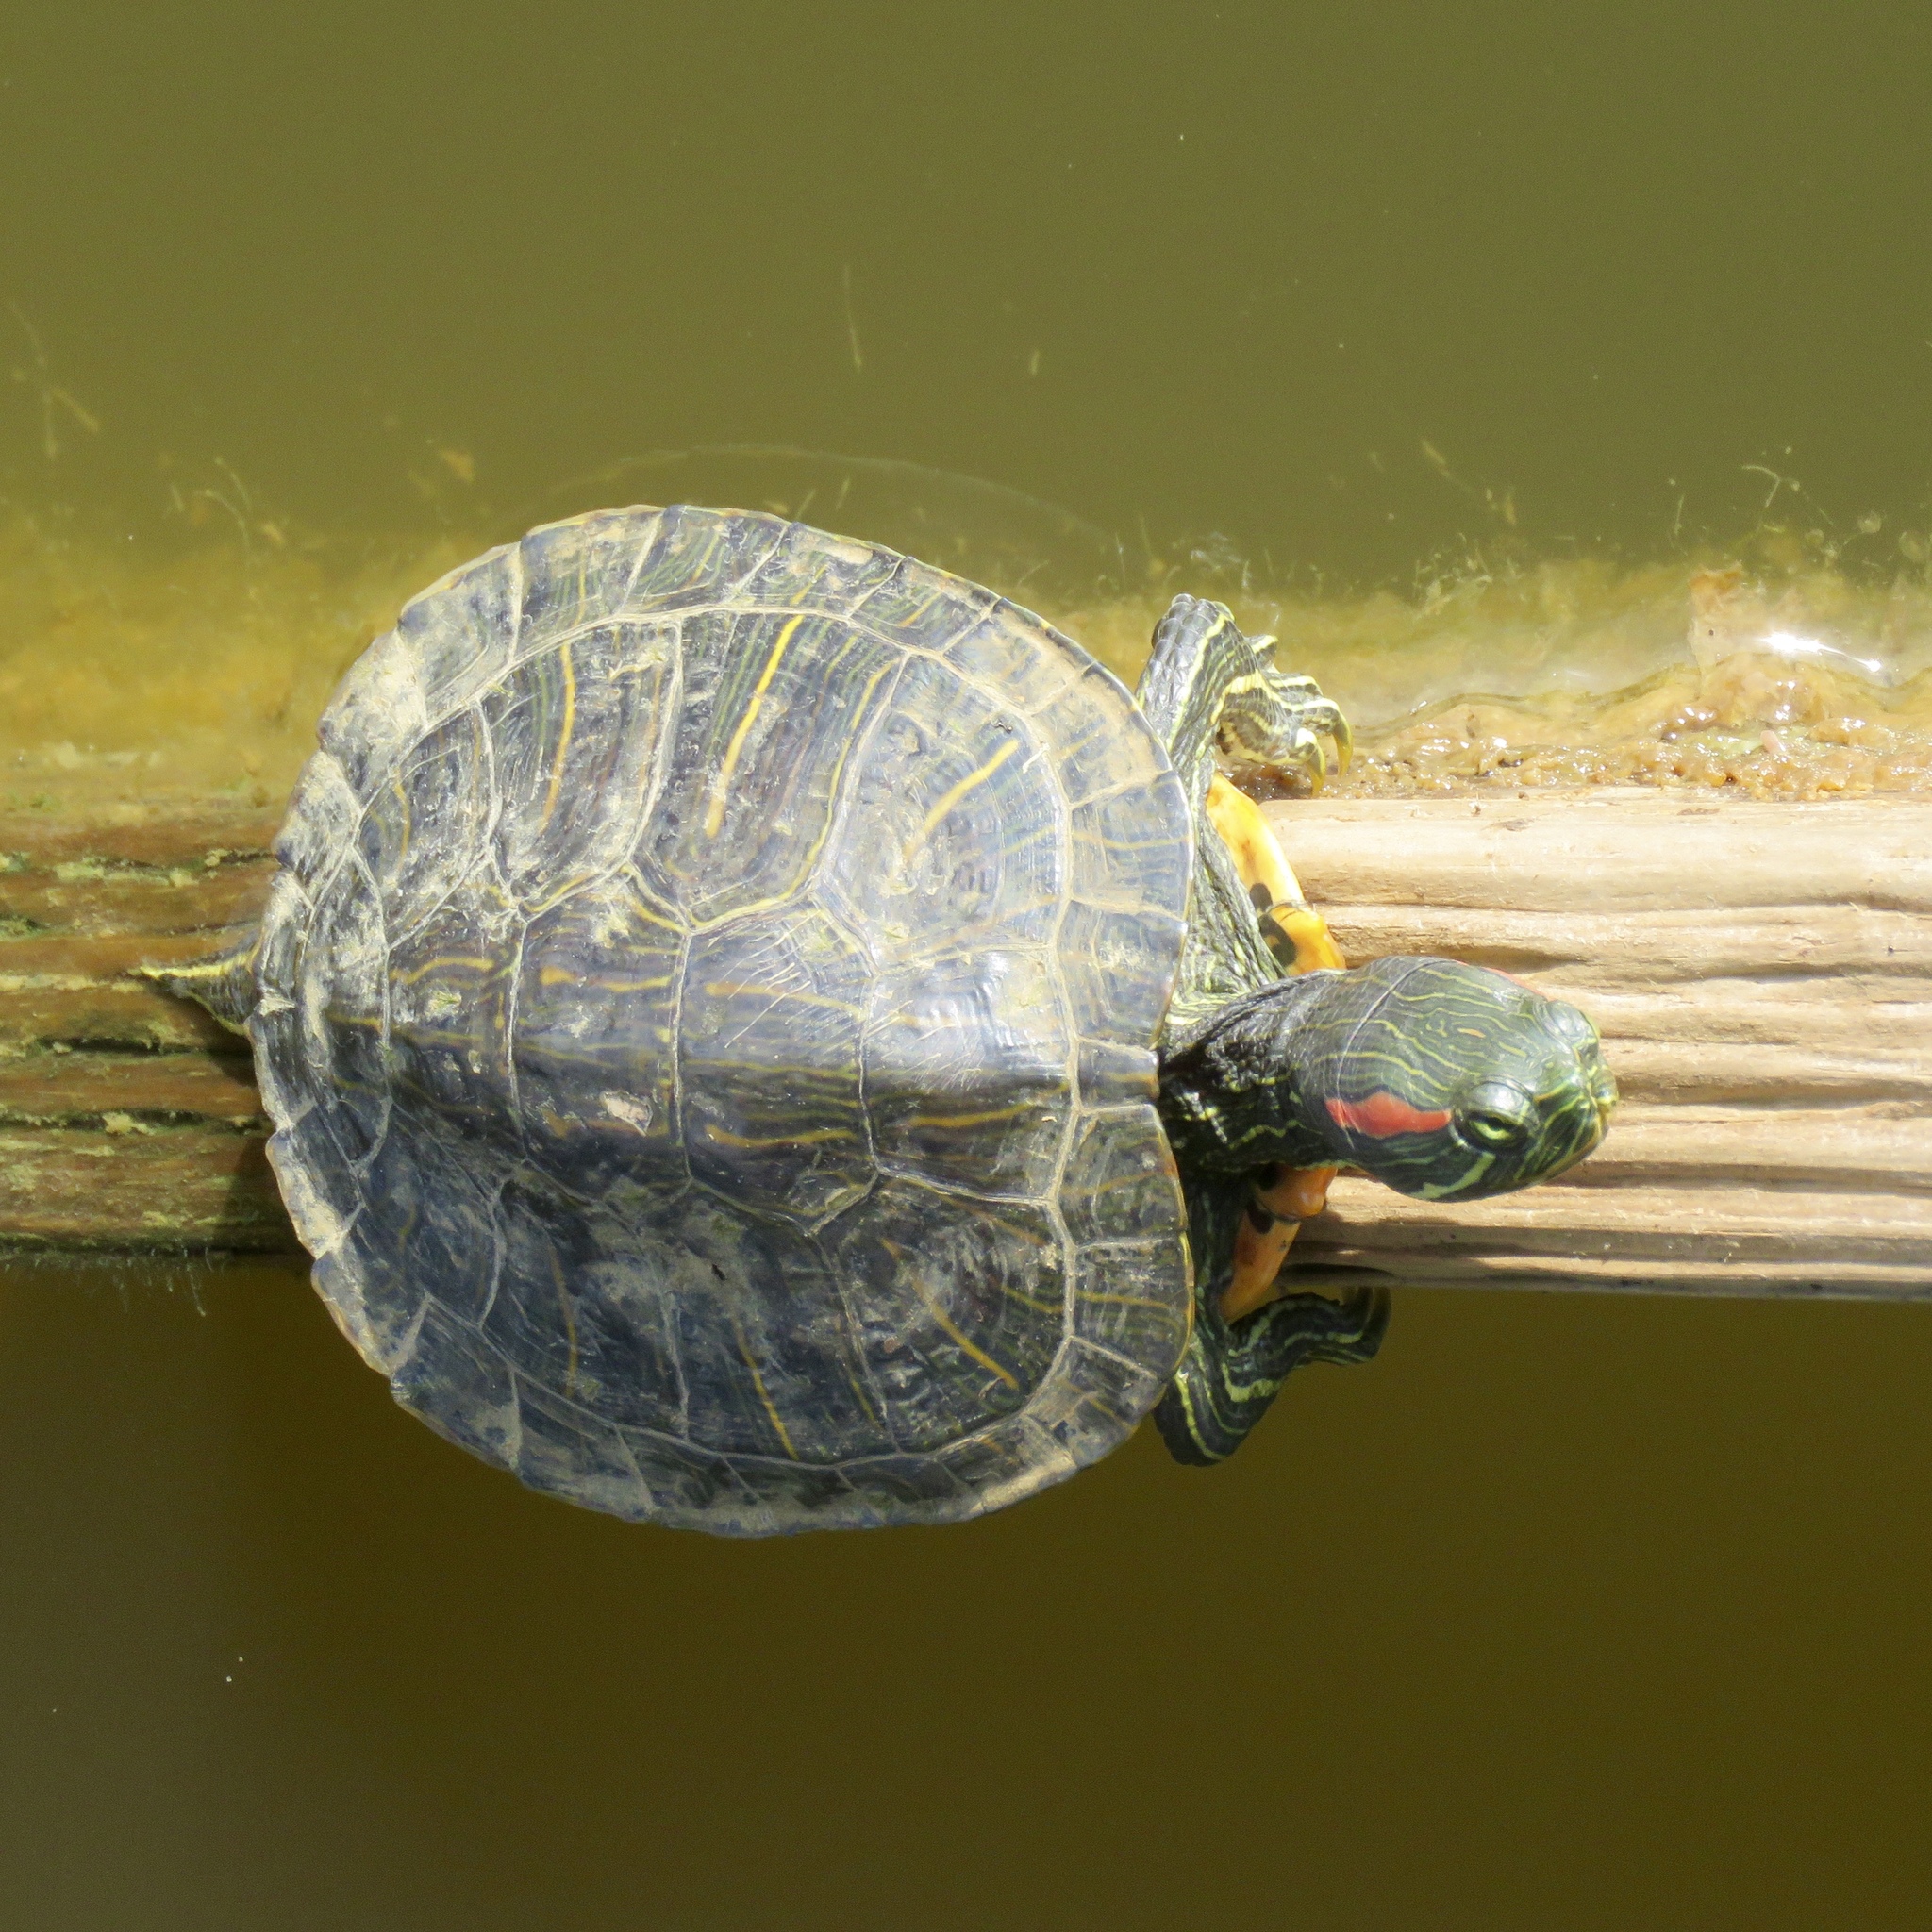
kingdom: Animalia
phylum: Chordata
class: Testudines
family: Emydidae
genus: Trachemys
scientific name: Trachemys scripta
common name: Slider
